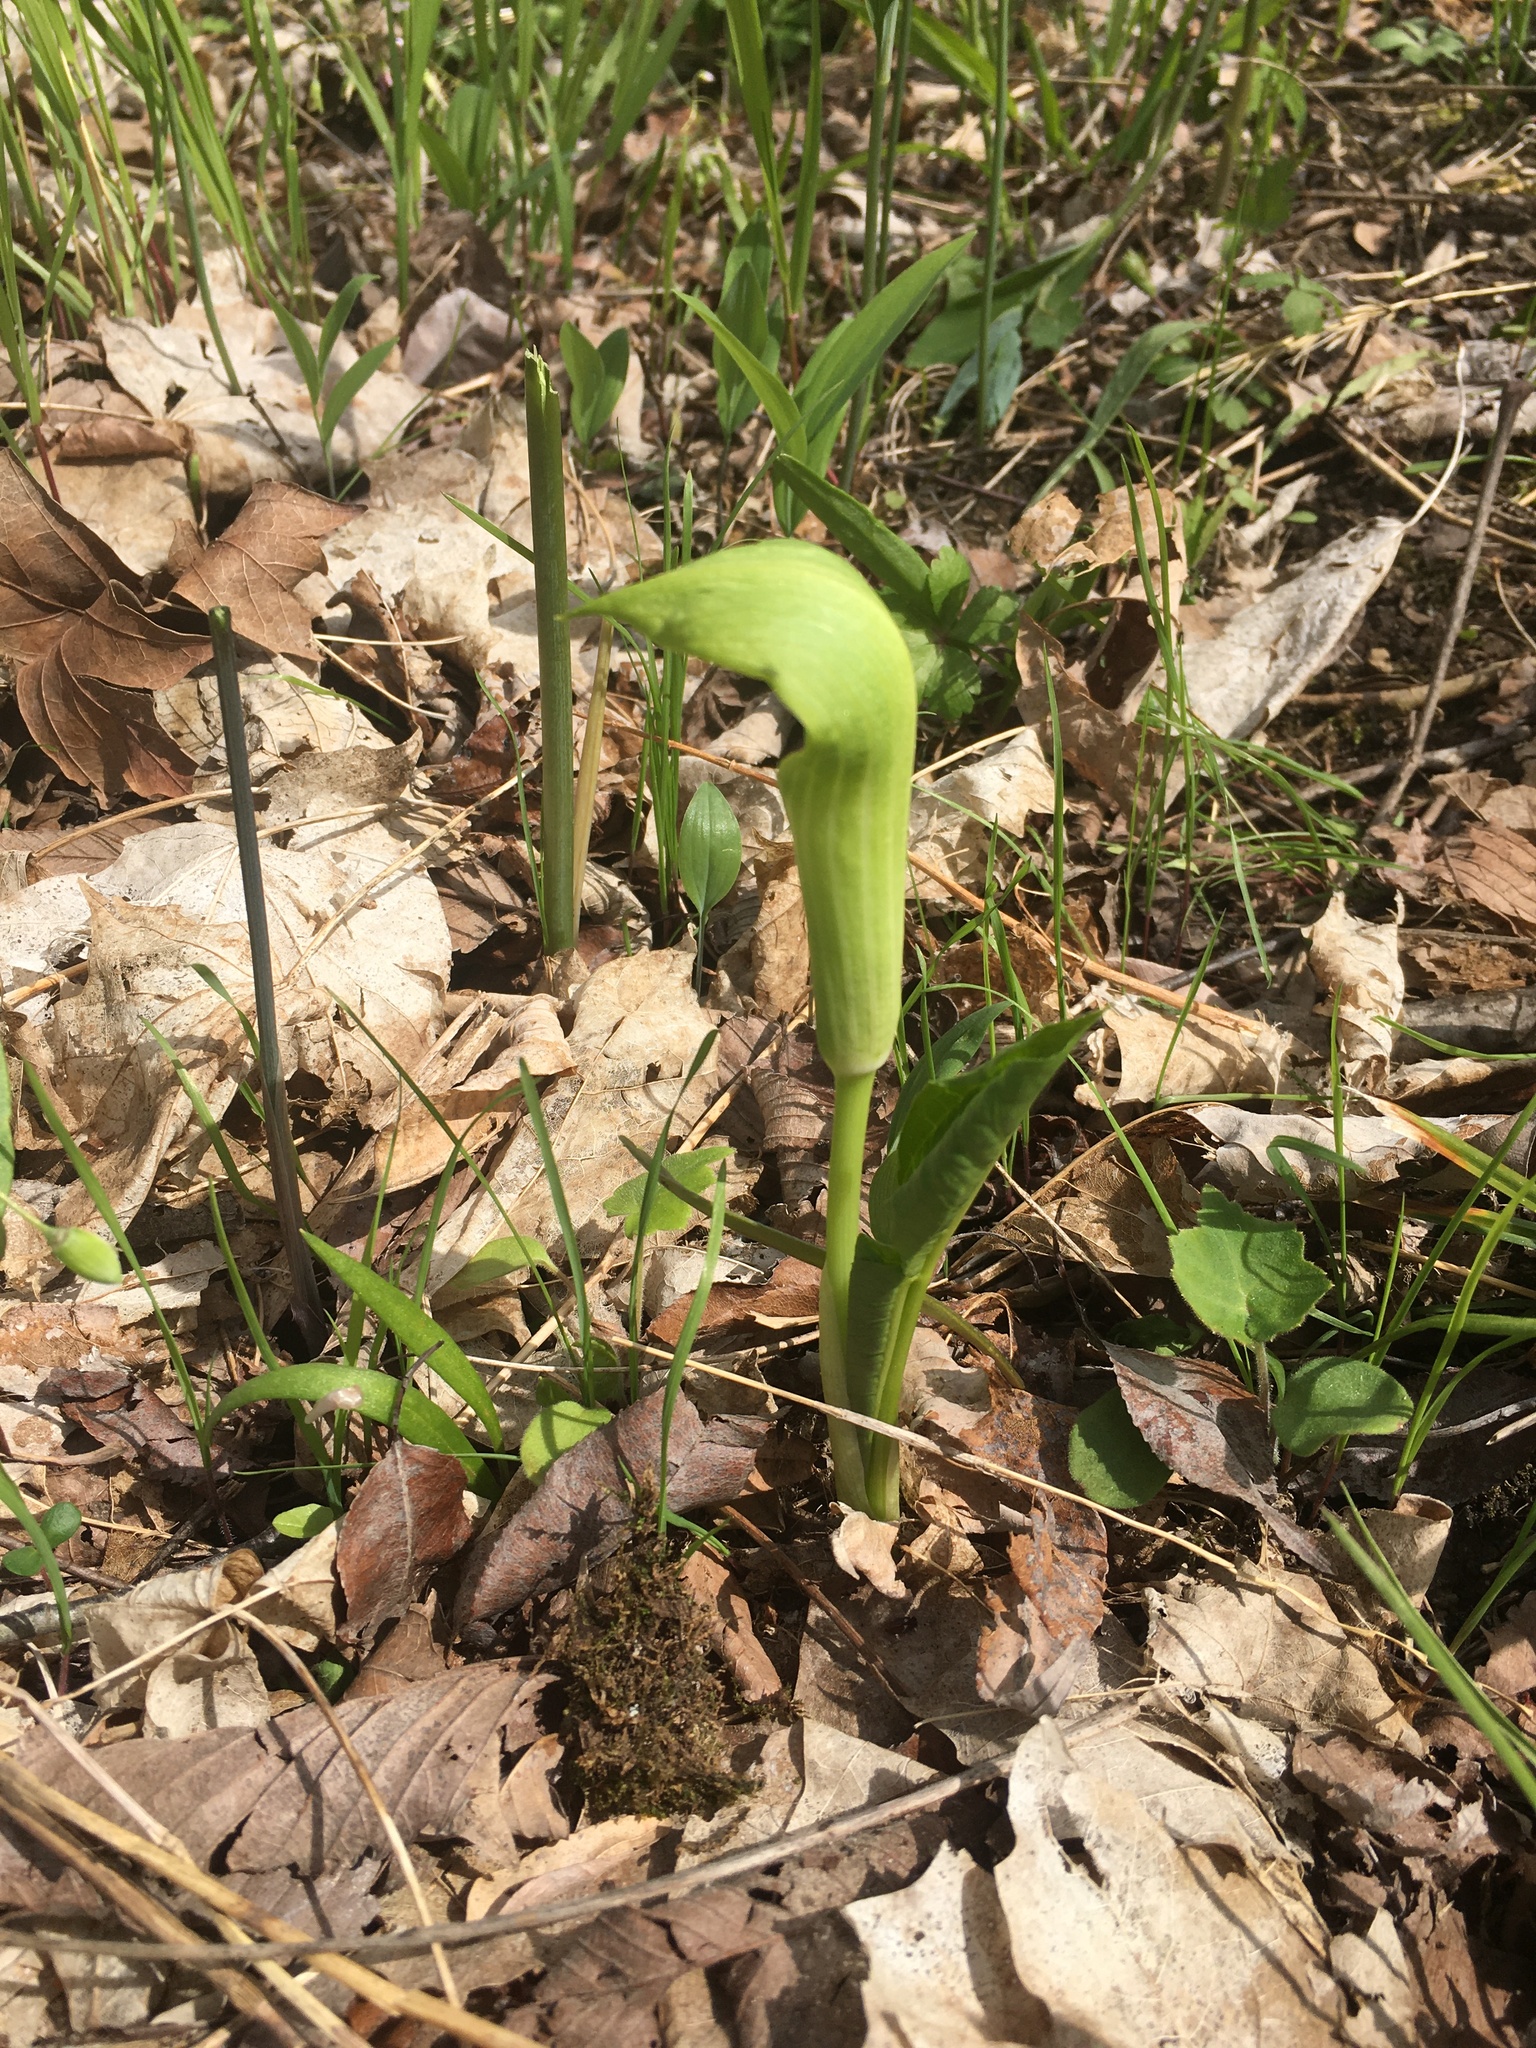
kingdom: Plantae
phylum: Tracheophyta
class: Liliopsida
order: Alismatales
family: Araceae
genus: Arisaema
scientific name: Arisaema triphyllum
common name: Jack-in-the-pulpit
